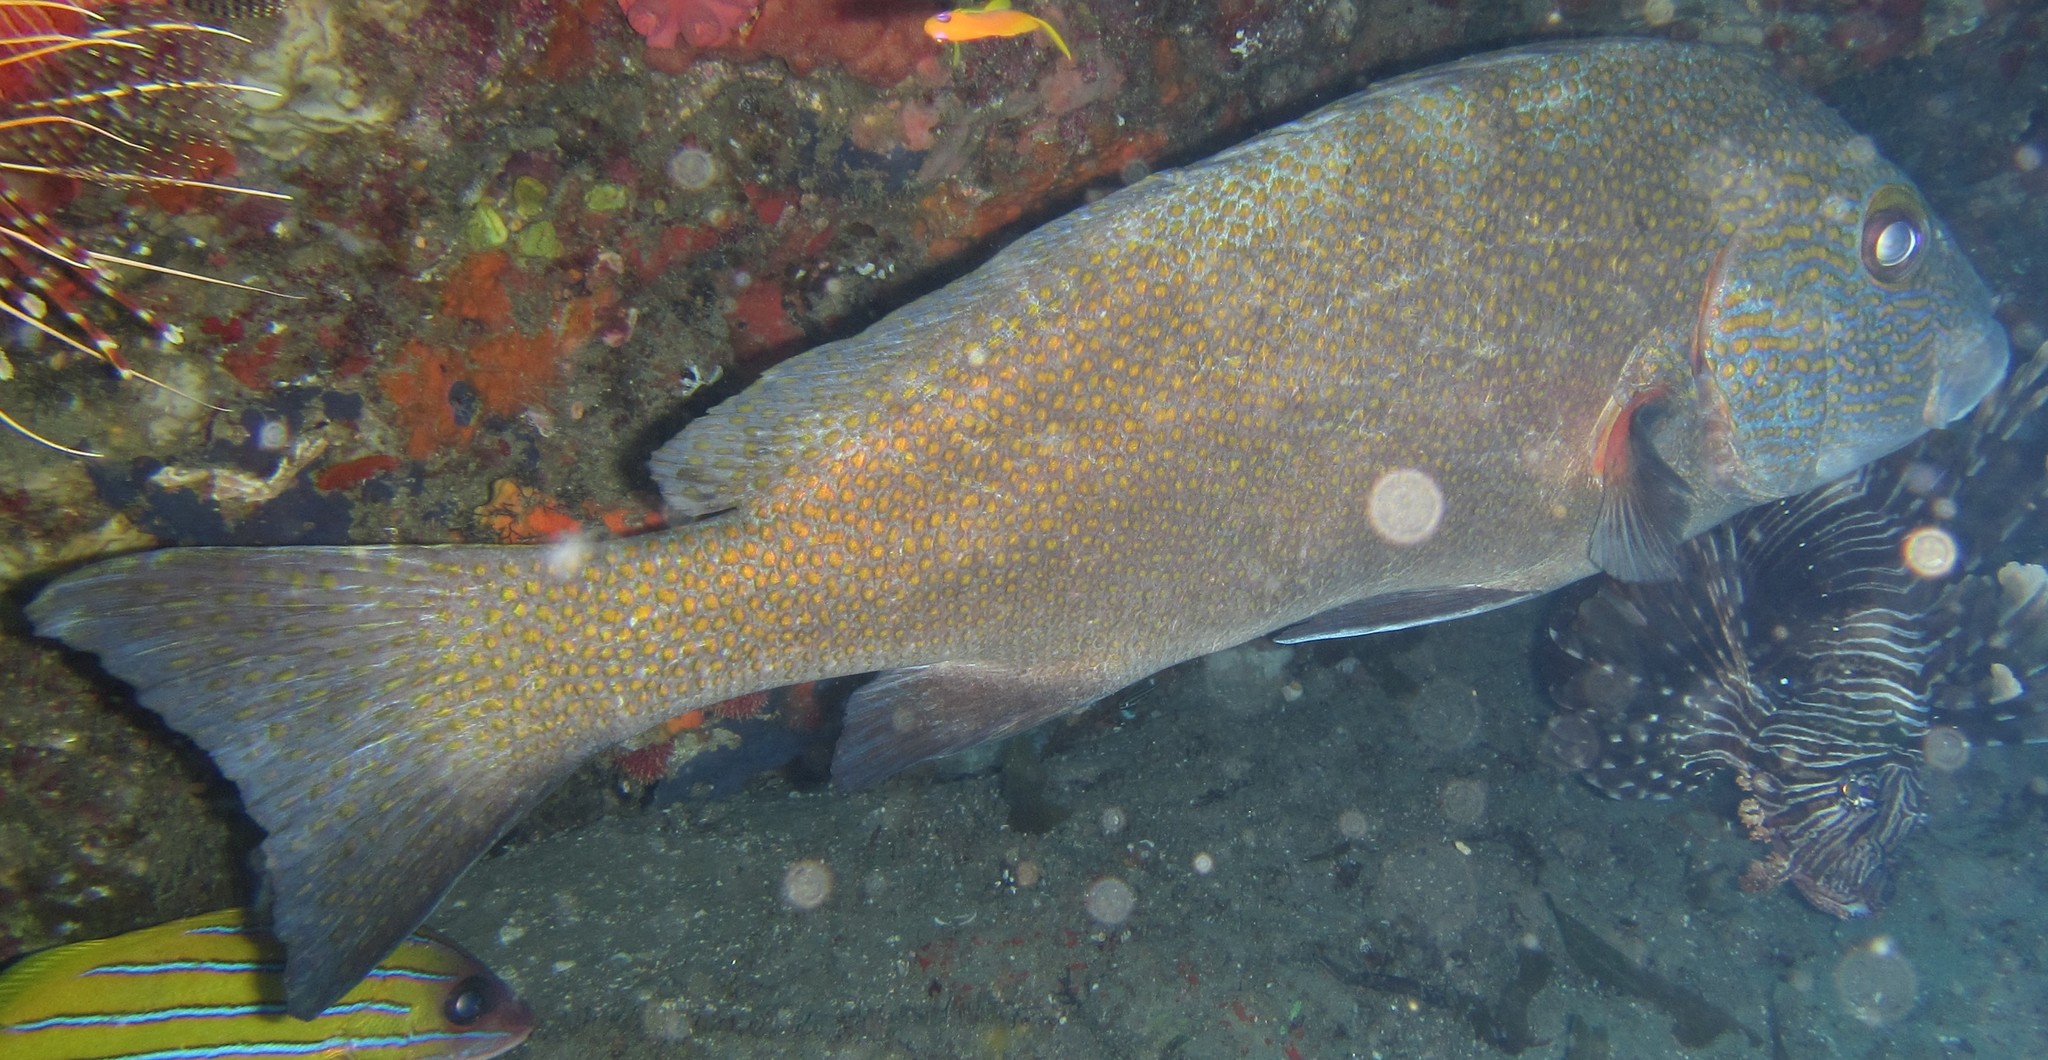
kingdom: Animalia
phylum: Chordata
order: Perciformes
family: Haemulidae
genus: Plectorhinchus
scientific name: Plectorhinchus flavomaculatus
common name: Netted sweetlips
